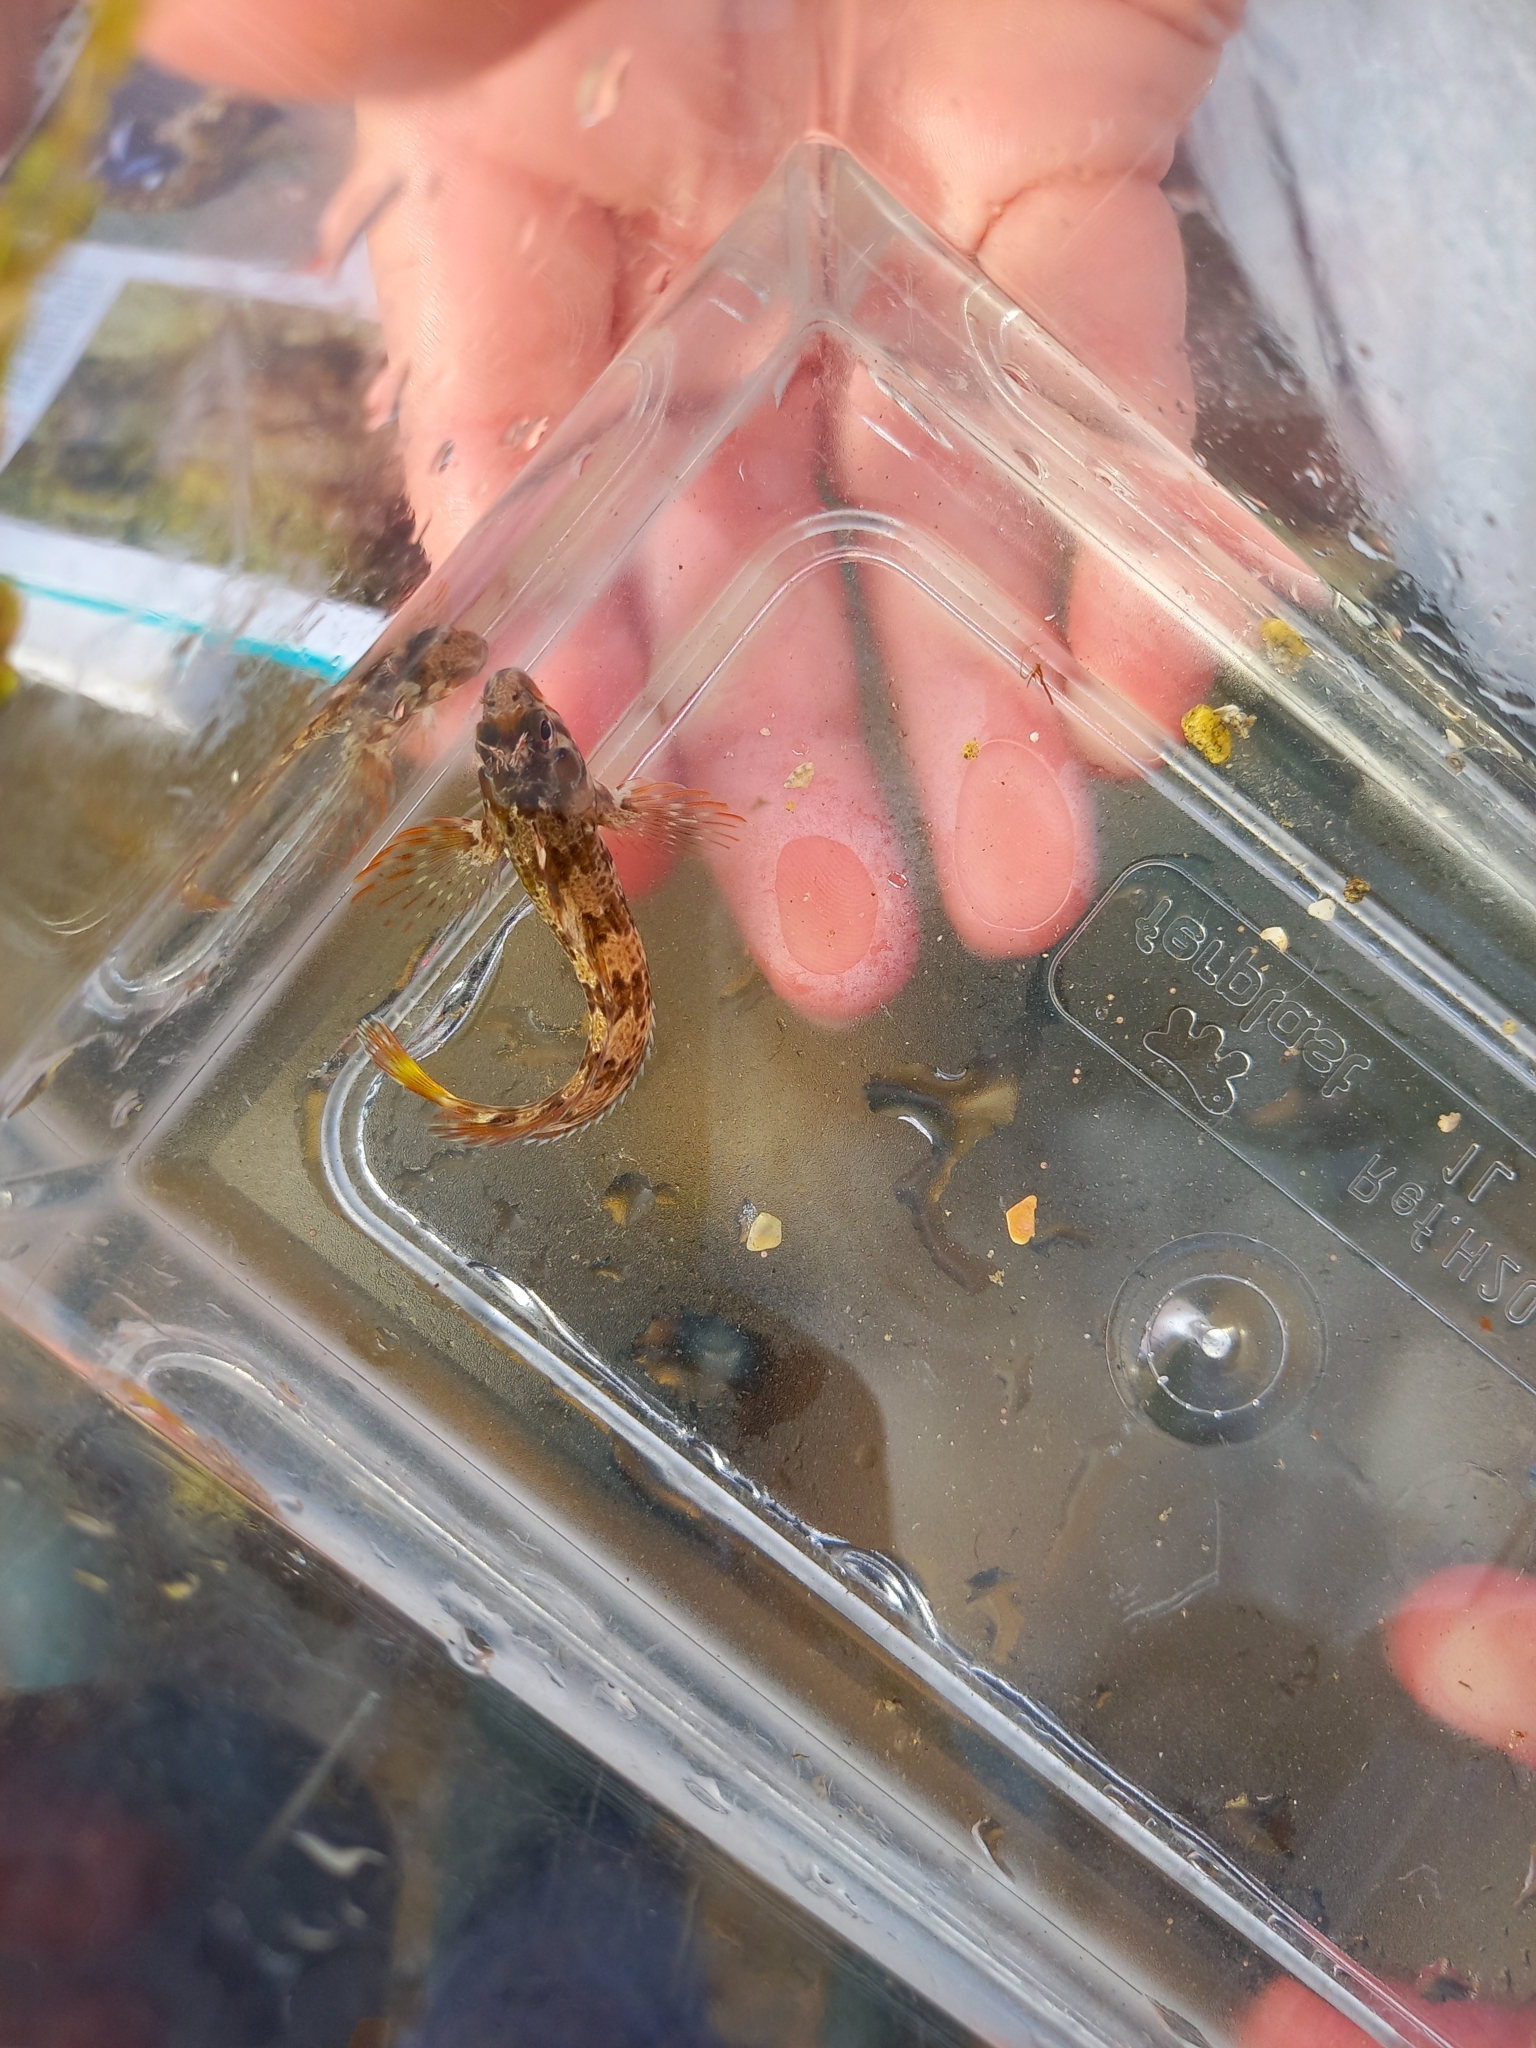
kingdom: Animalia
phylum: Chordata
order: Perciformes
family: Blenniidae
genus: Parablennius
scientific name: Parablennius gattorugine
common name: Tompot blenny
